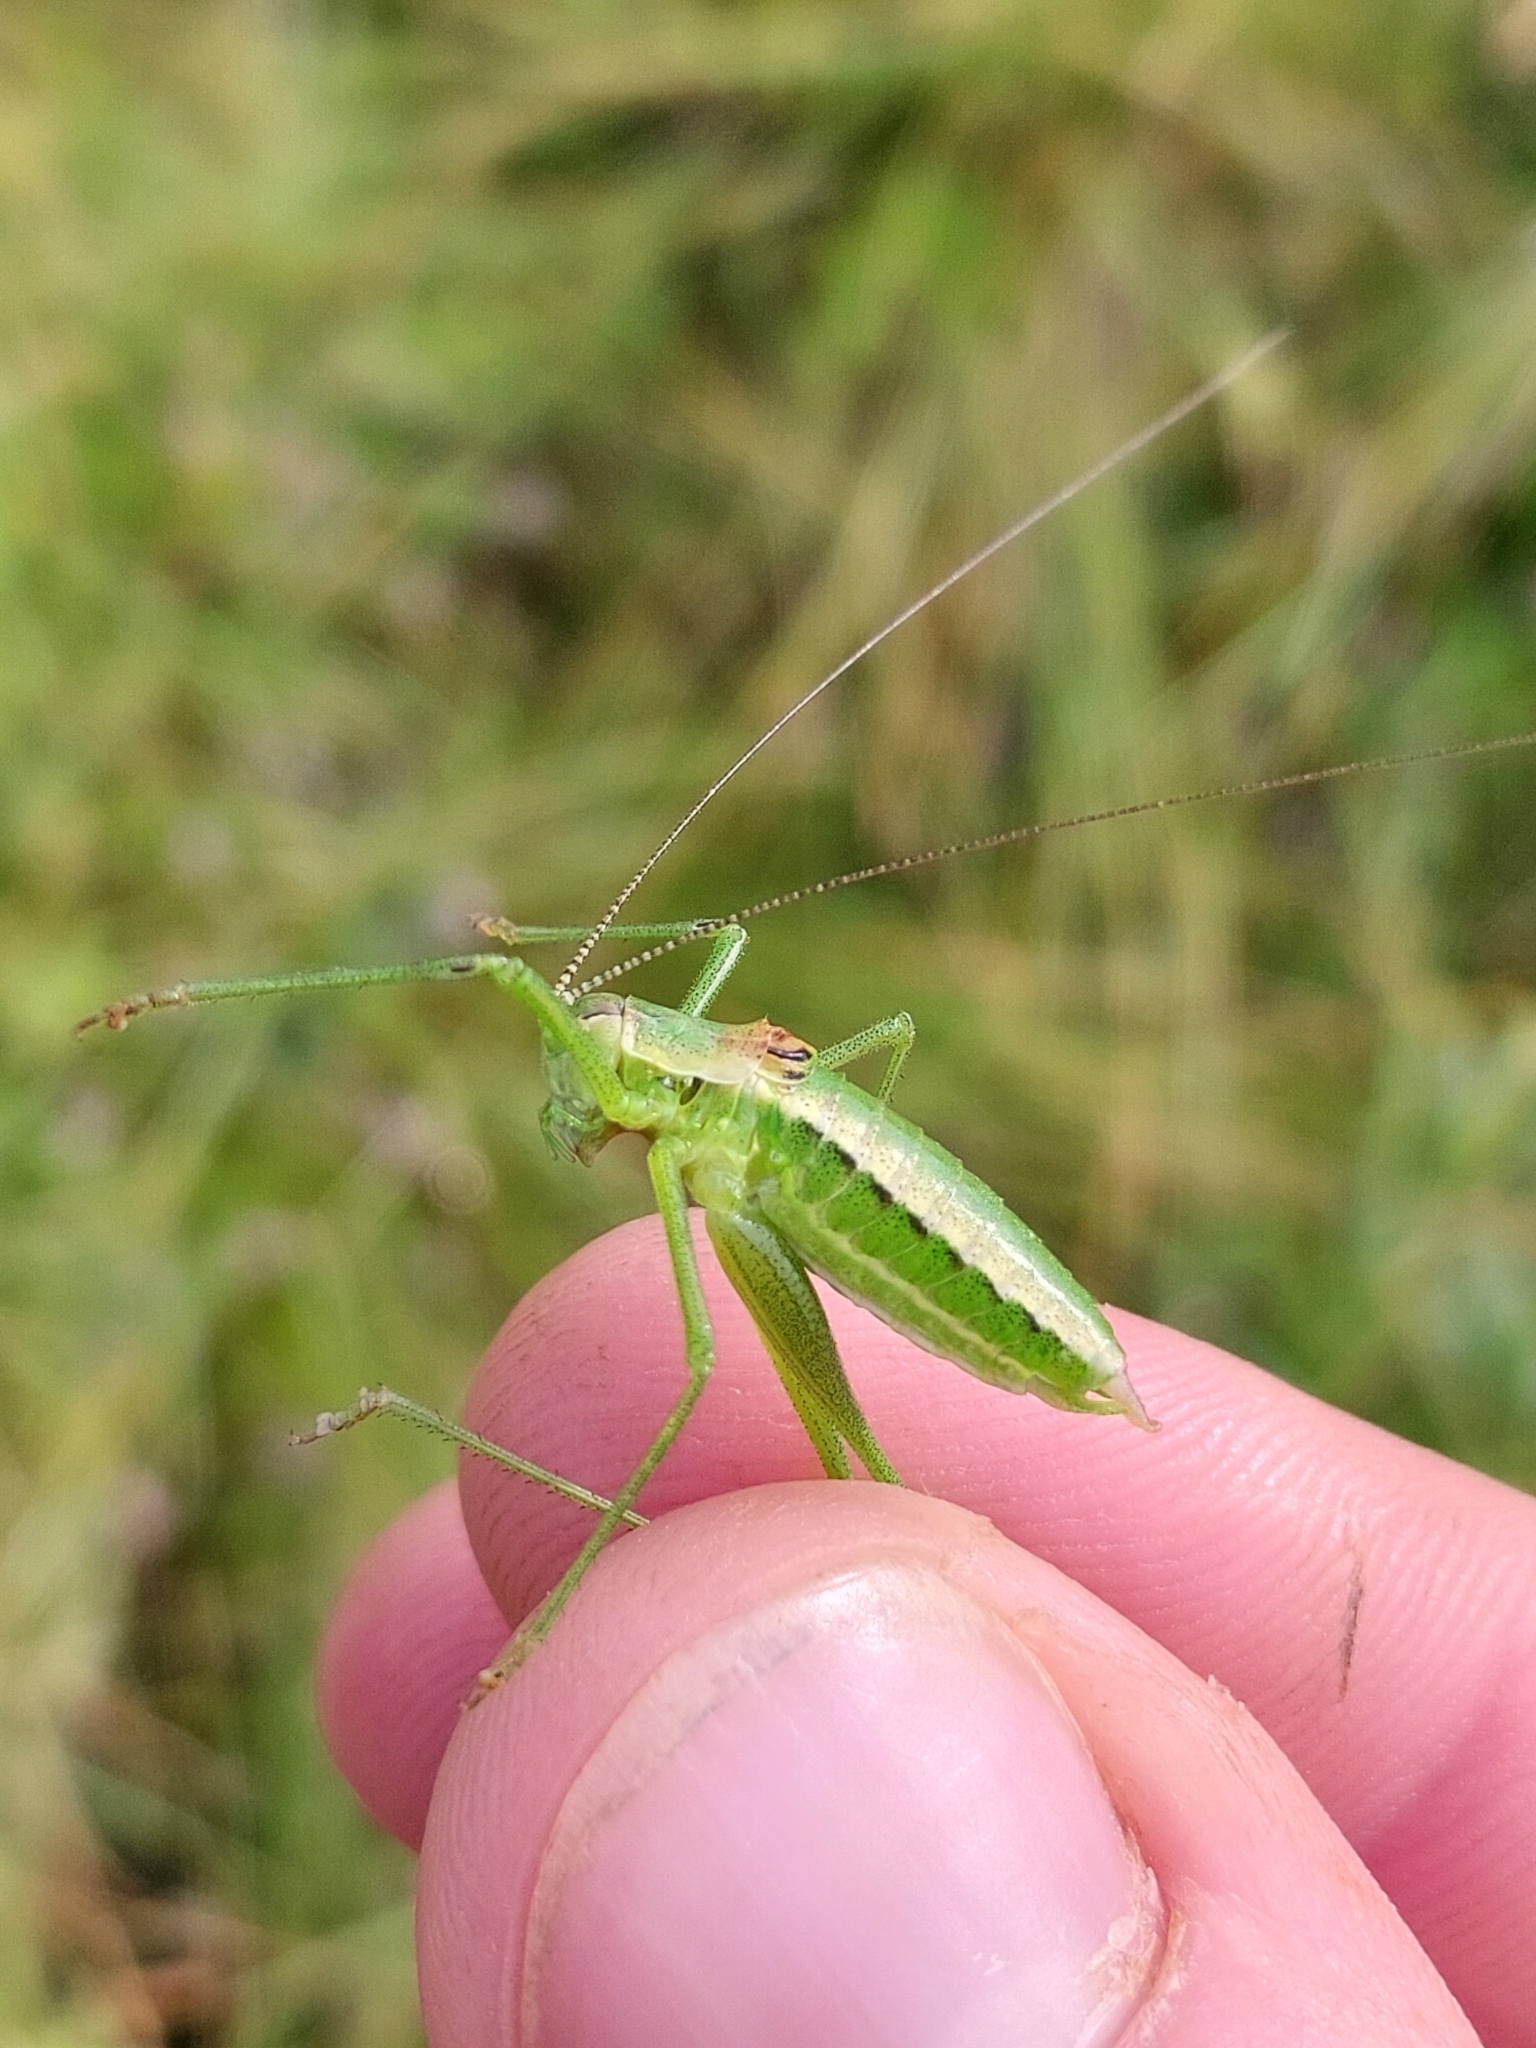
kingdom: Animalia
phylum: Arthropoda
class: Insecta
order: Orthoptera
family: Tettigoniidae
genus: Leptophyes
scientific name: Leptophyes boscii
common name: Balkan speckled bush-cricket
